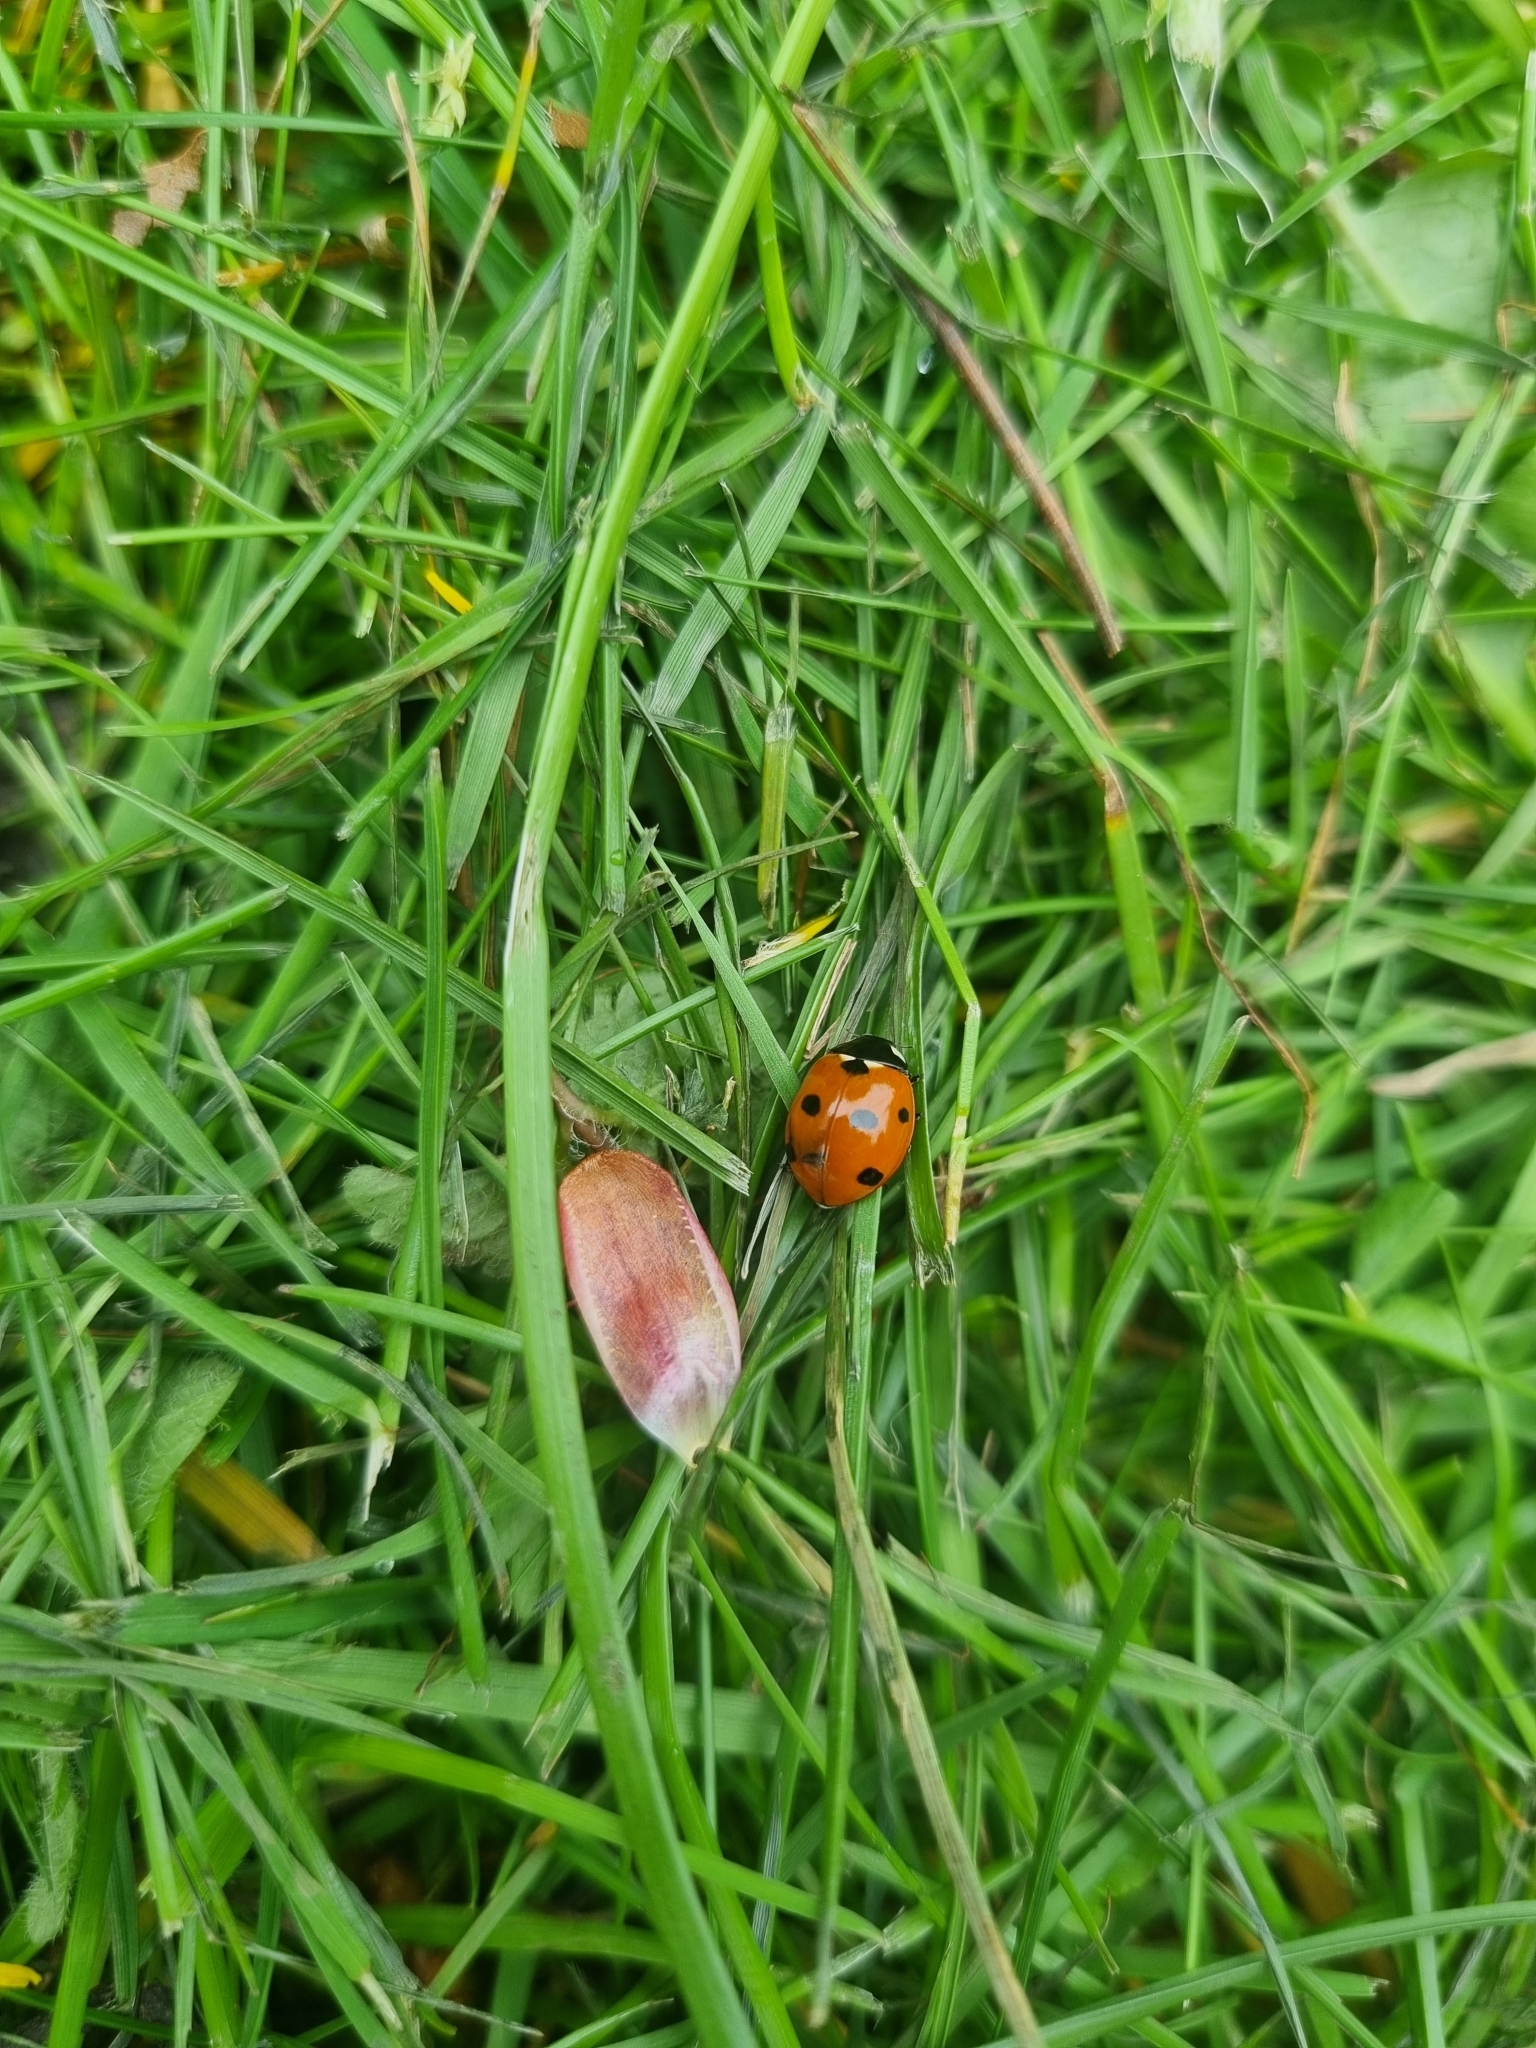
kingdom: Animalia
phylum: Arthropoda
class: Insecta
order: Coleoptera
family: Coccinellidae
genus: Coccinella
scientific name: Coccinella septempunctata
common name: Sevenspotted lady beetle
